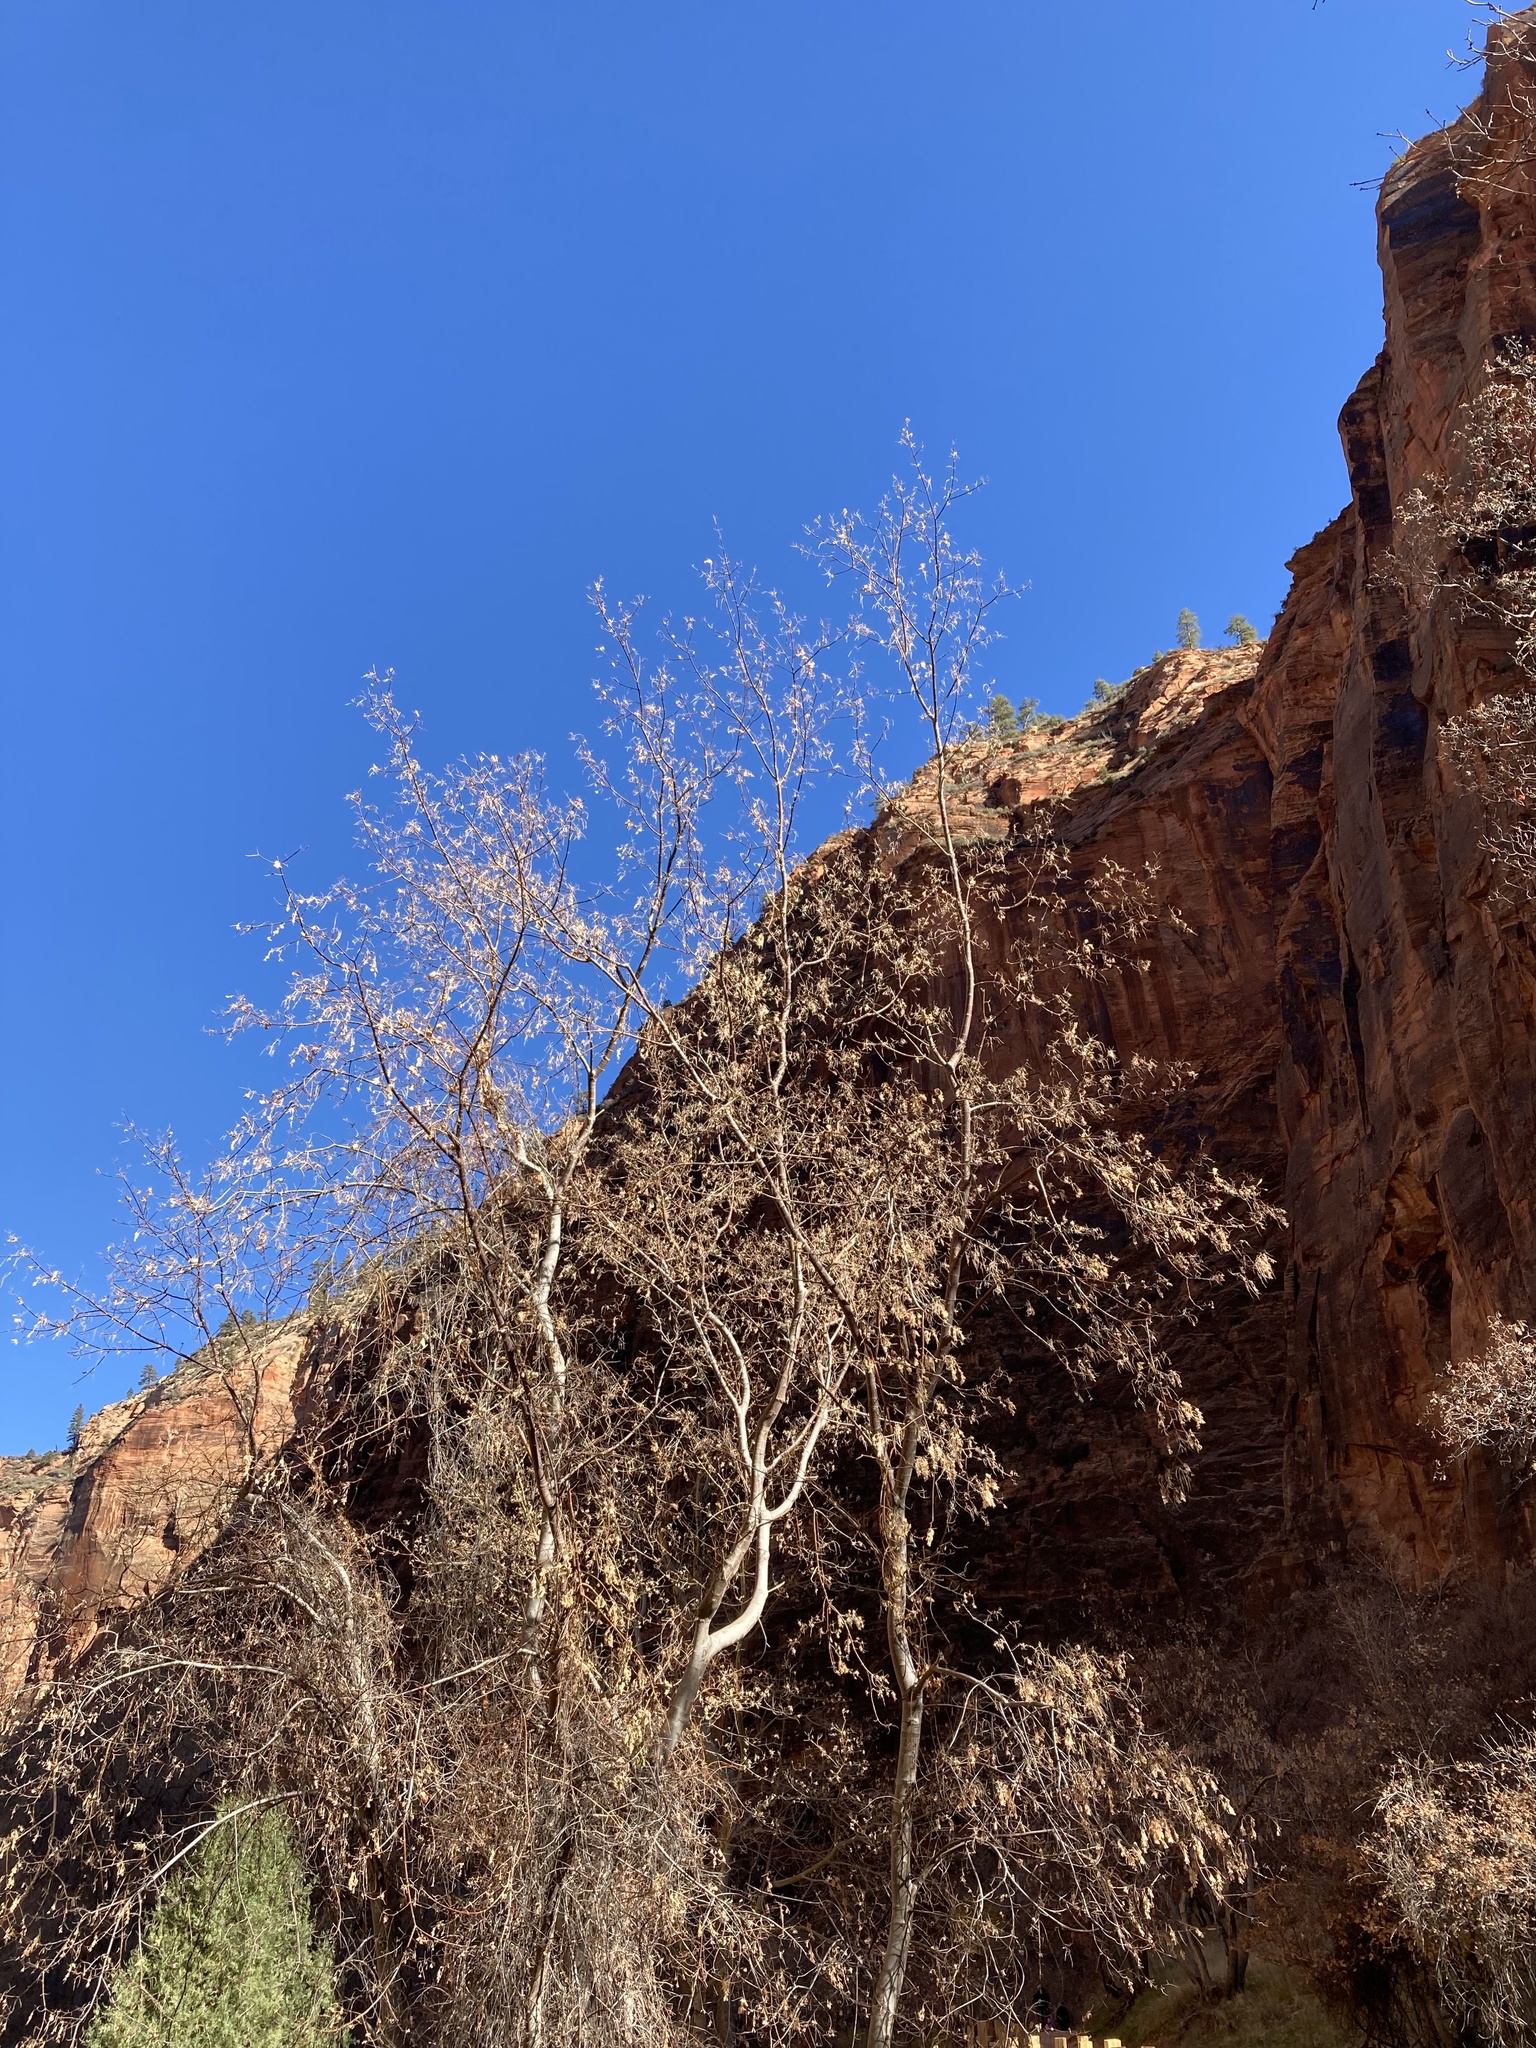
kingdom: Plantae
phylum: Tracheophyta
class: Magnoliopsida
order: Sapindales
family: Sapindaceae
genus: Acer
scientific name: Acer negundo
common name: Ashleaf maple
